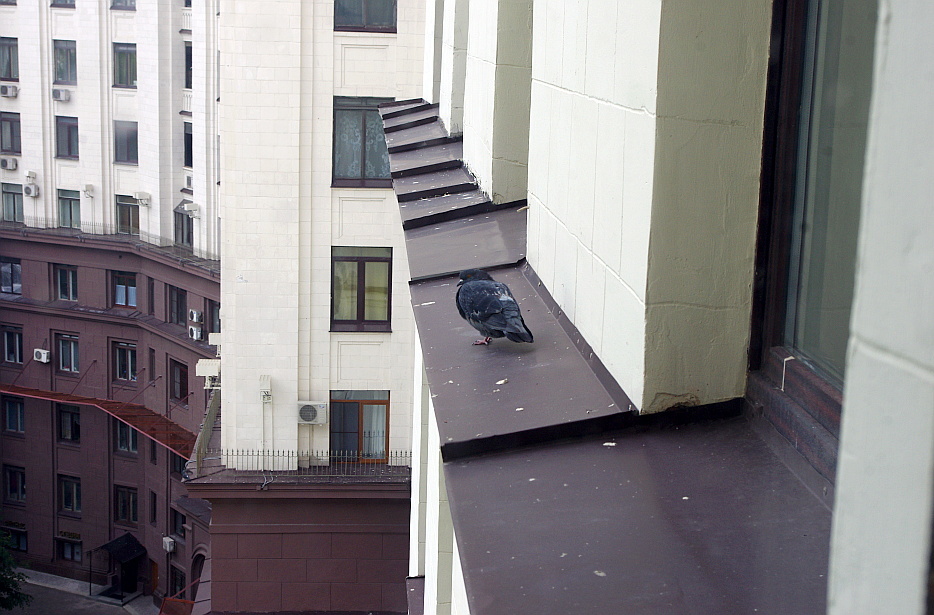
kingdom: Animalia
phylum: Chordata
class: Aves
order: Columbiformes
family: Columbidae
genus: Columba
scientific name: Columba livia
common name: Rock pigeon
